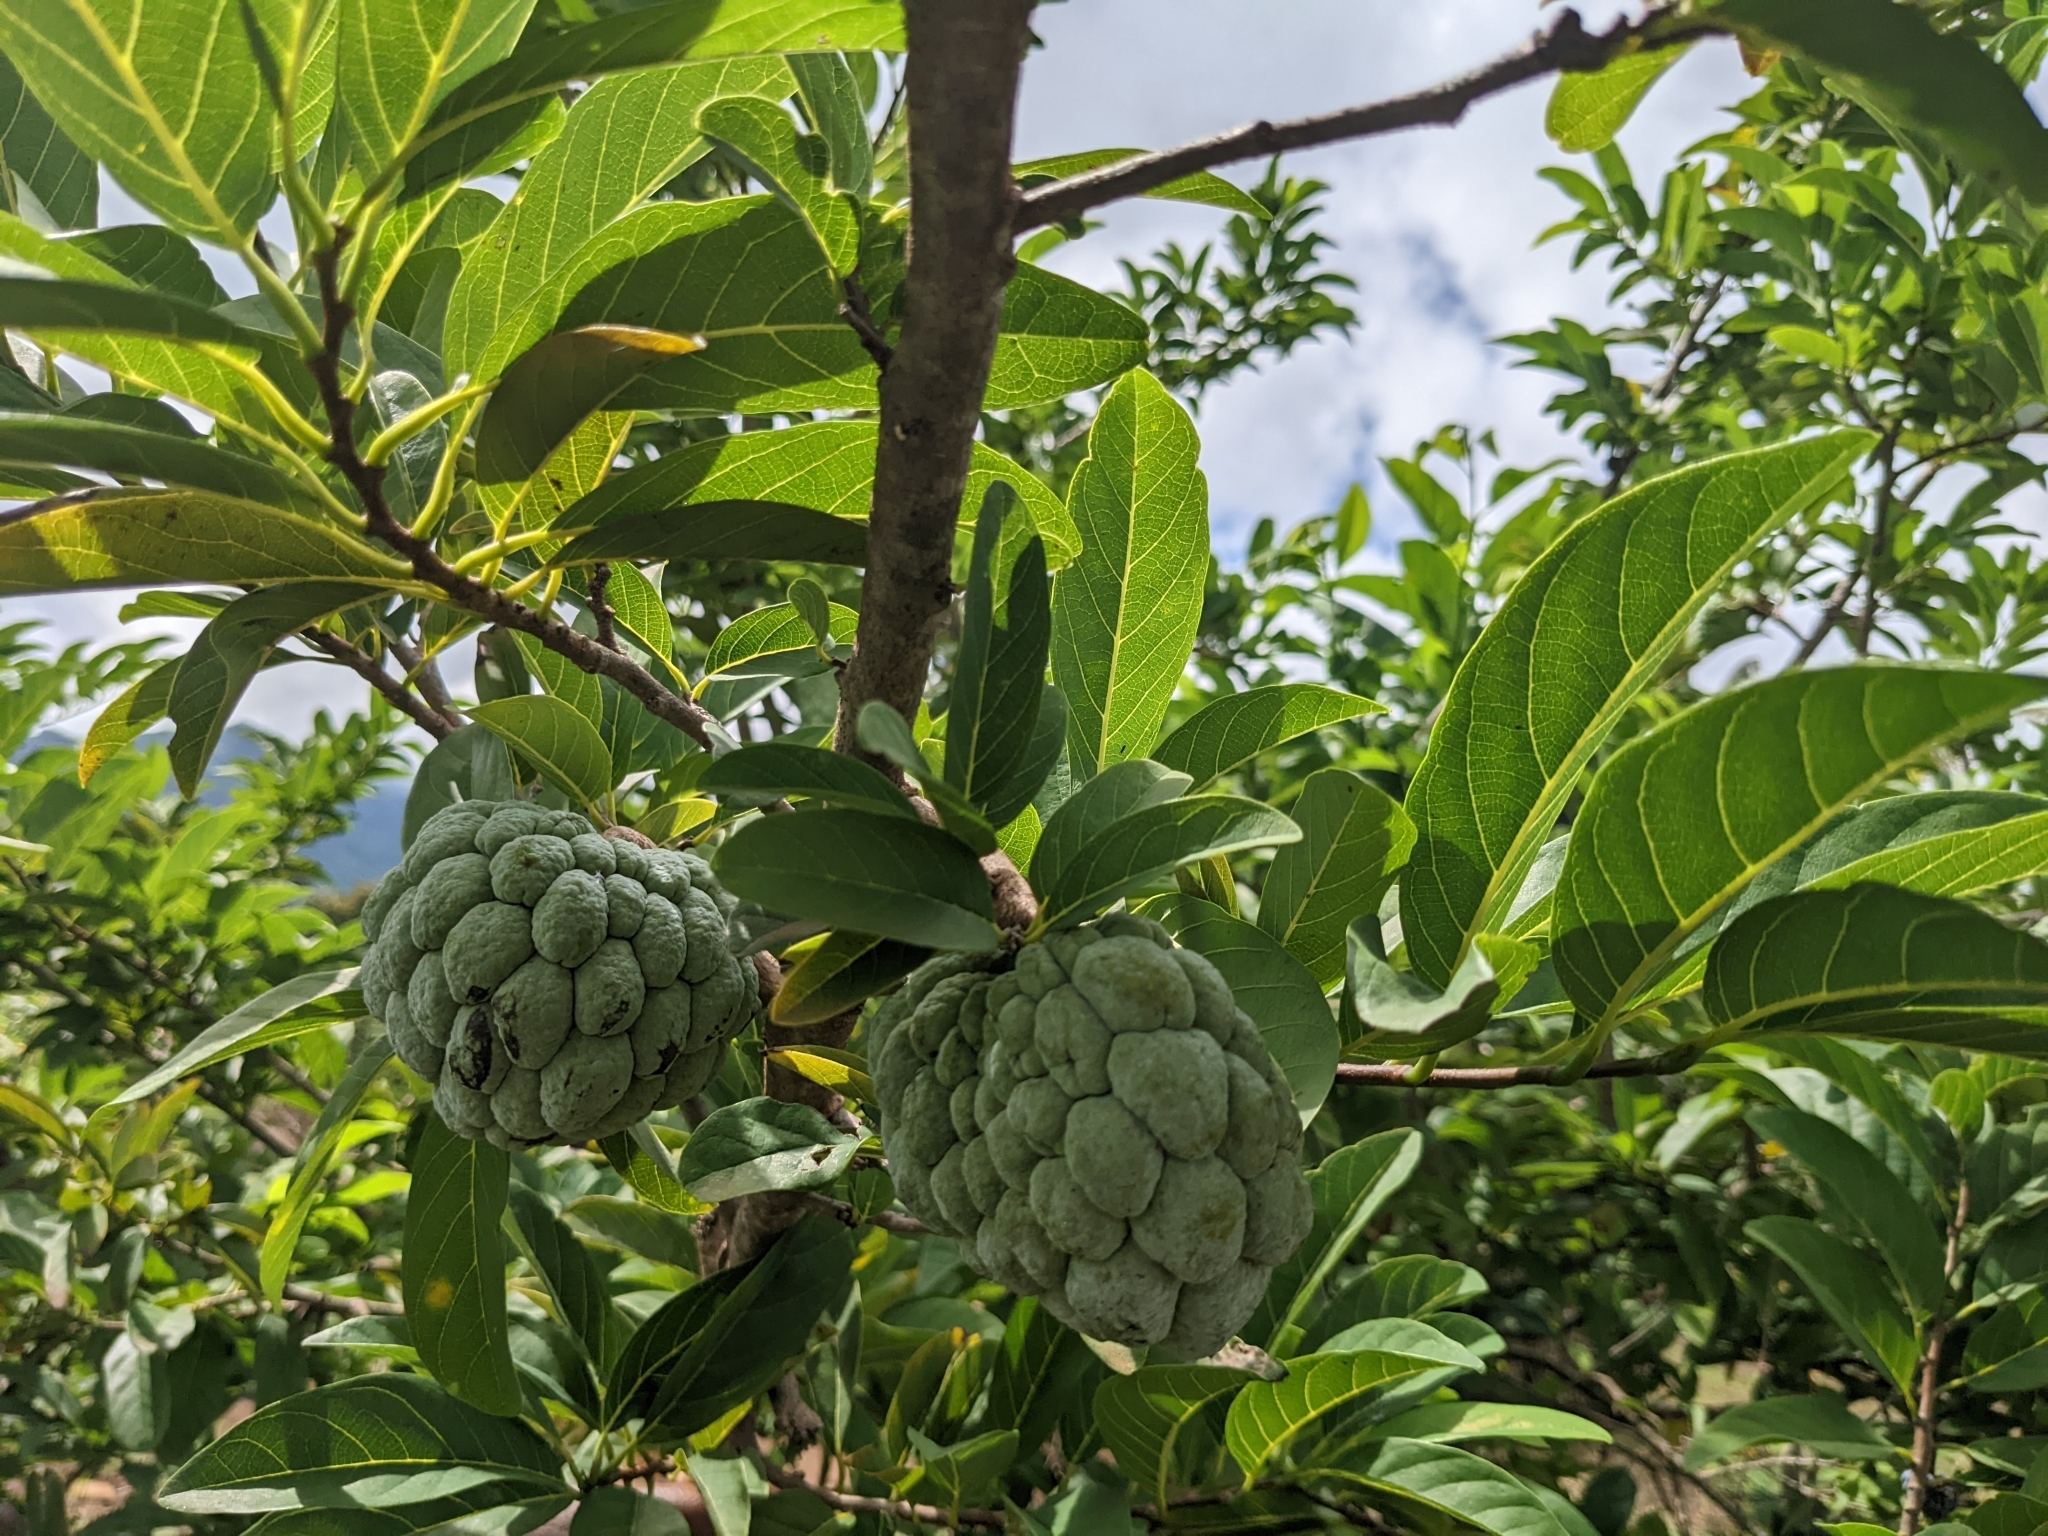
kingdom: Plantae
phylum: Tracheophyta
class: Magnoliopsida
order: Magnoliales
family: Annonaceae
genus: Annona
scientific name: Annona squamosa
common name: Custard-apple
